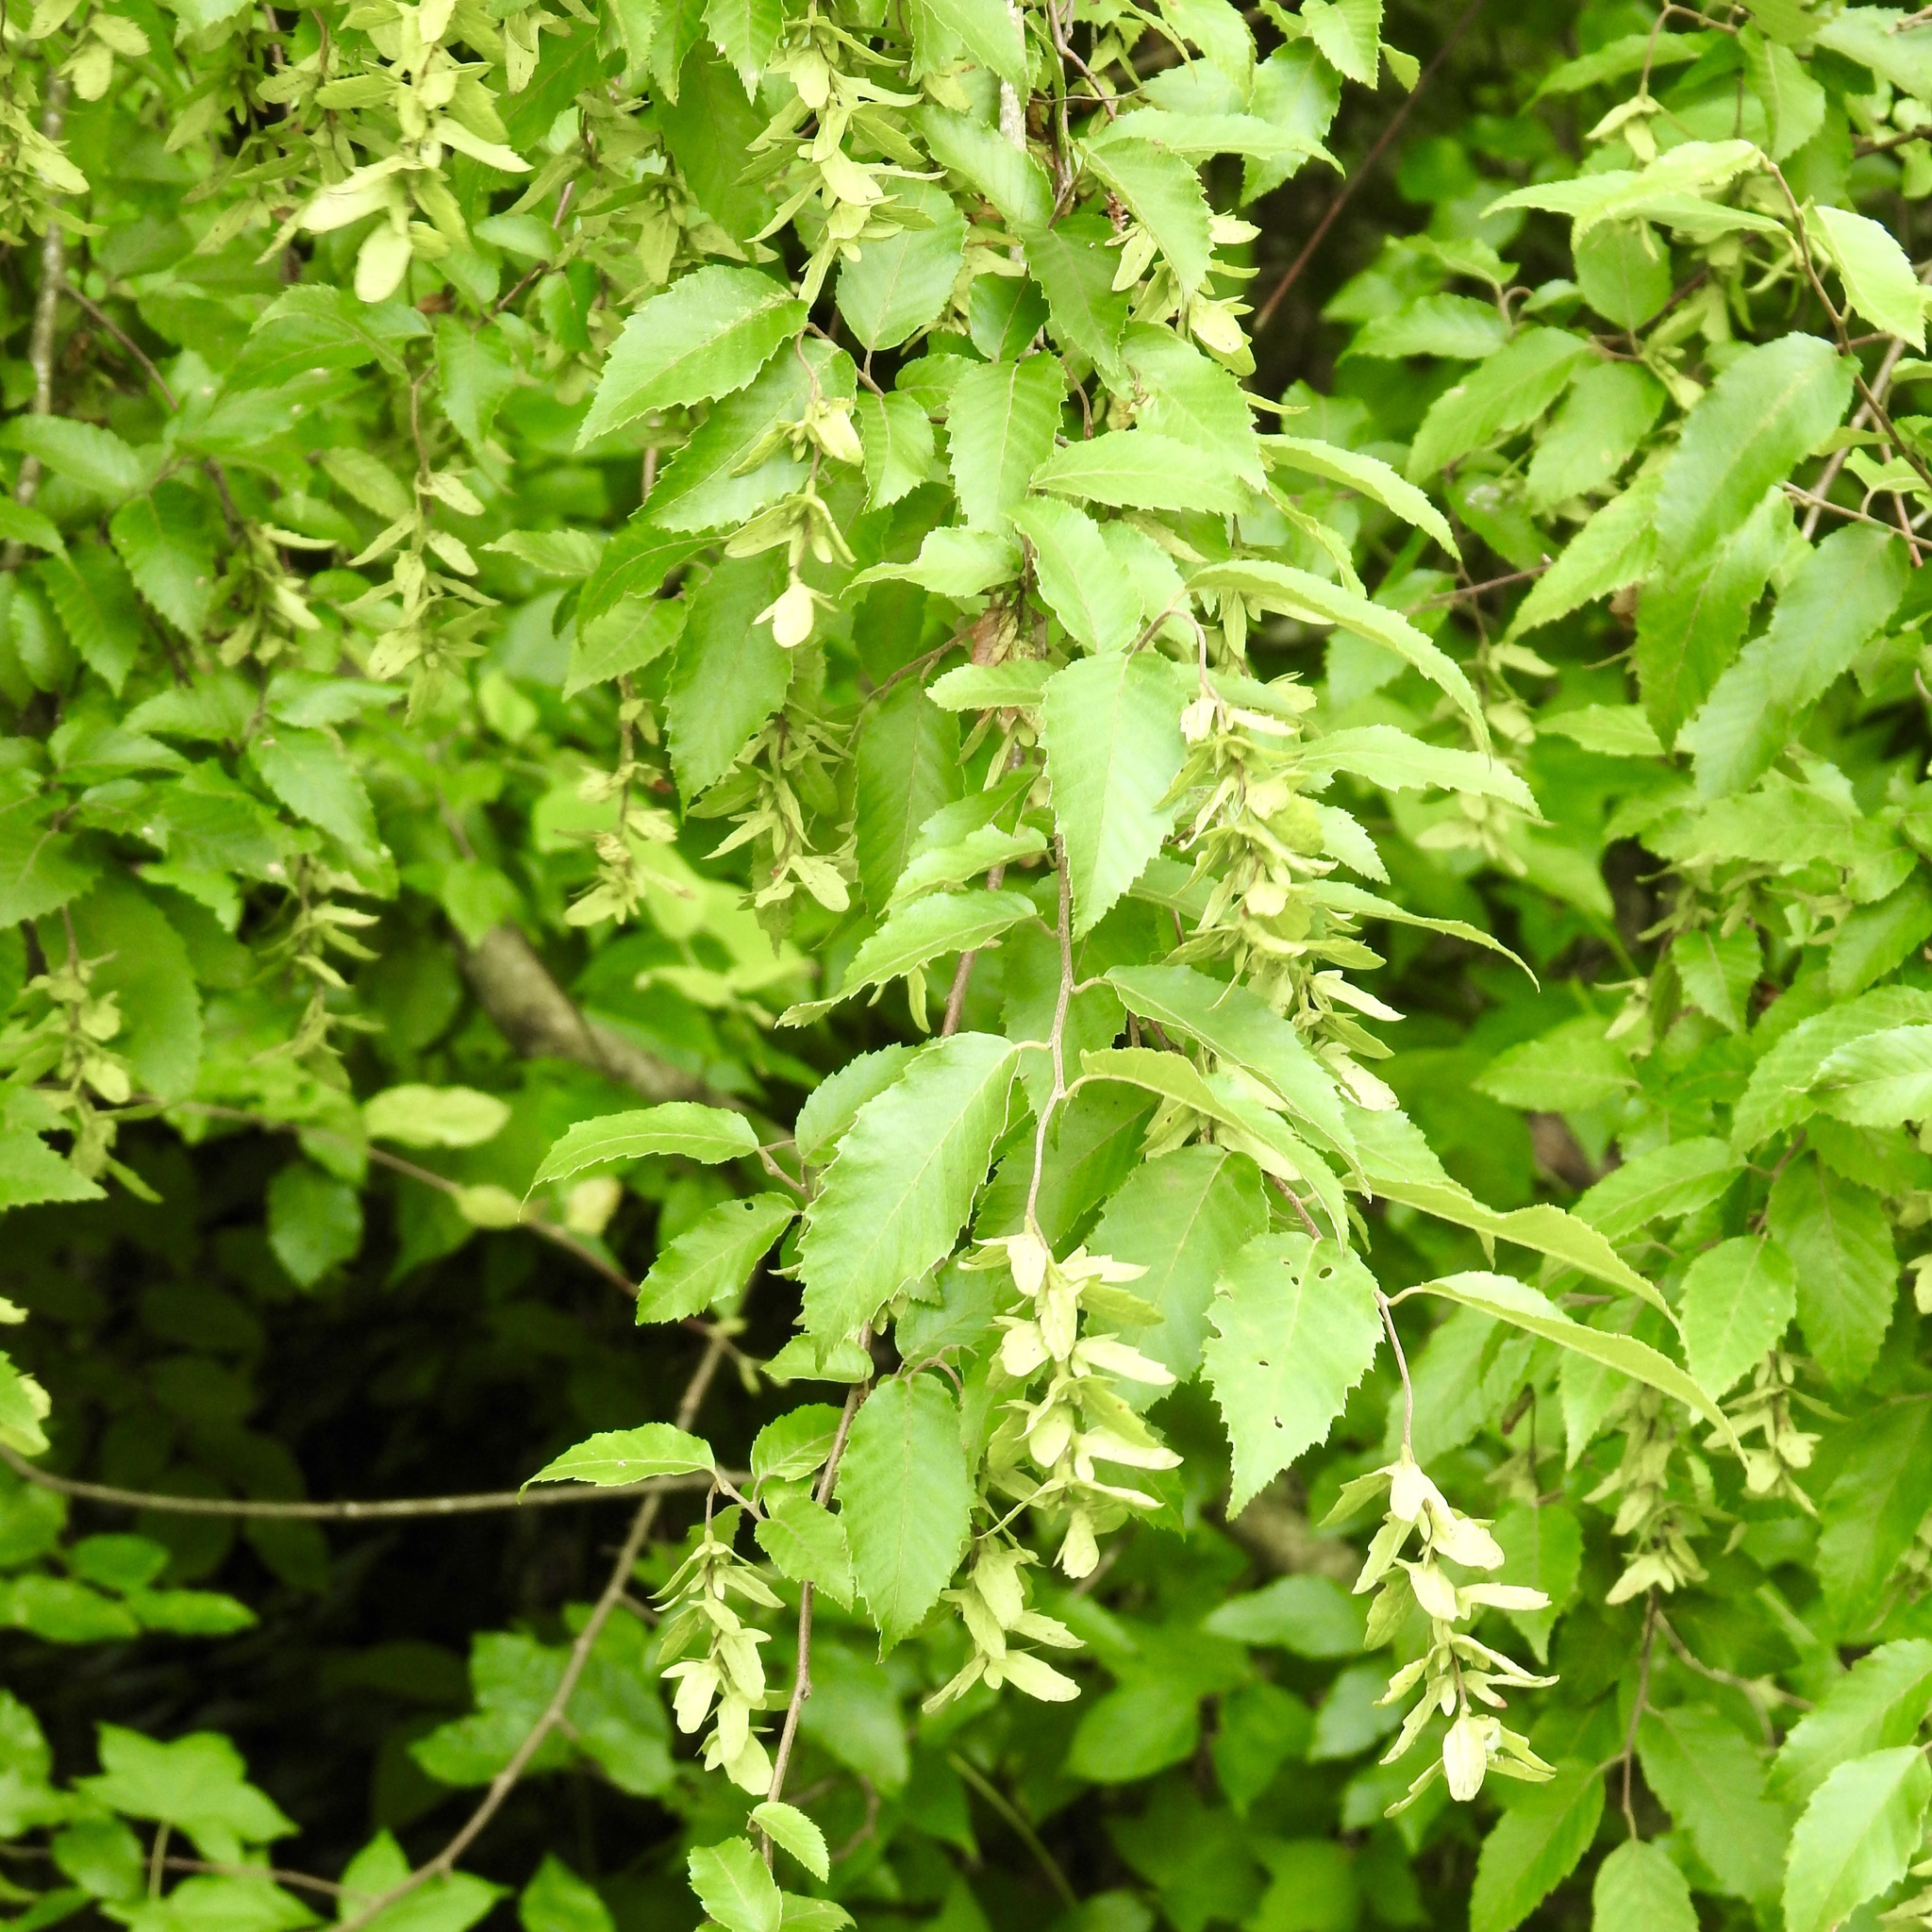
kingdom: Plantae
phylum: Tracheophyta
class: Magnoliopsida
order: Fagales
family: Betulaceae
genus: Carpinus
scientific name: Carpinus caroliniana
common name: American hornbeam
